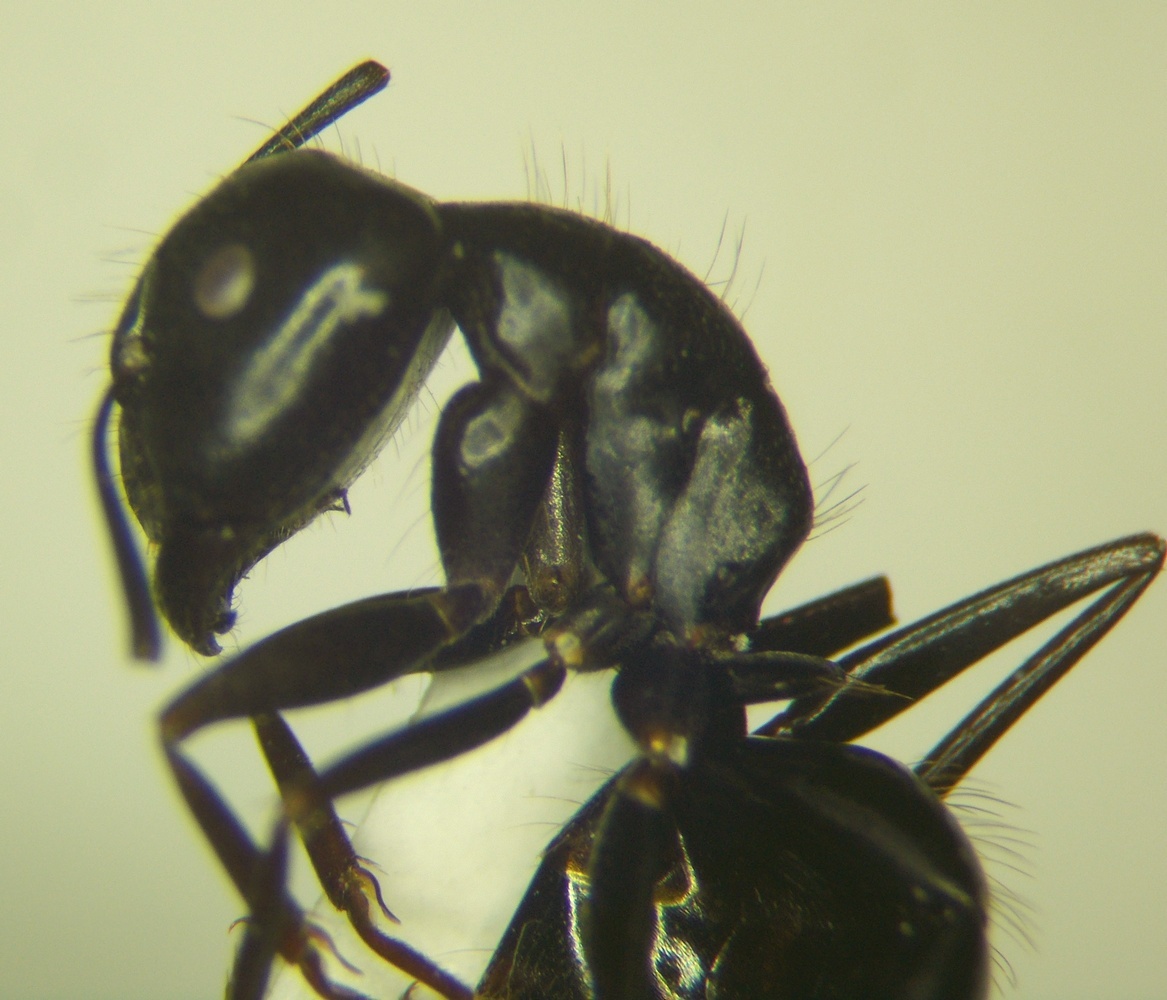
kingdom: Animalia
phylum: Arthropoda
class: Insecta
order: Hymenoptera
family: Formicidae
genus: Camponotus
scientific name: Camponotus aethiops
